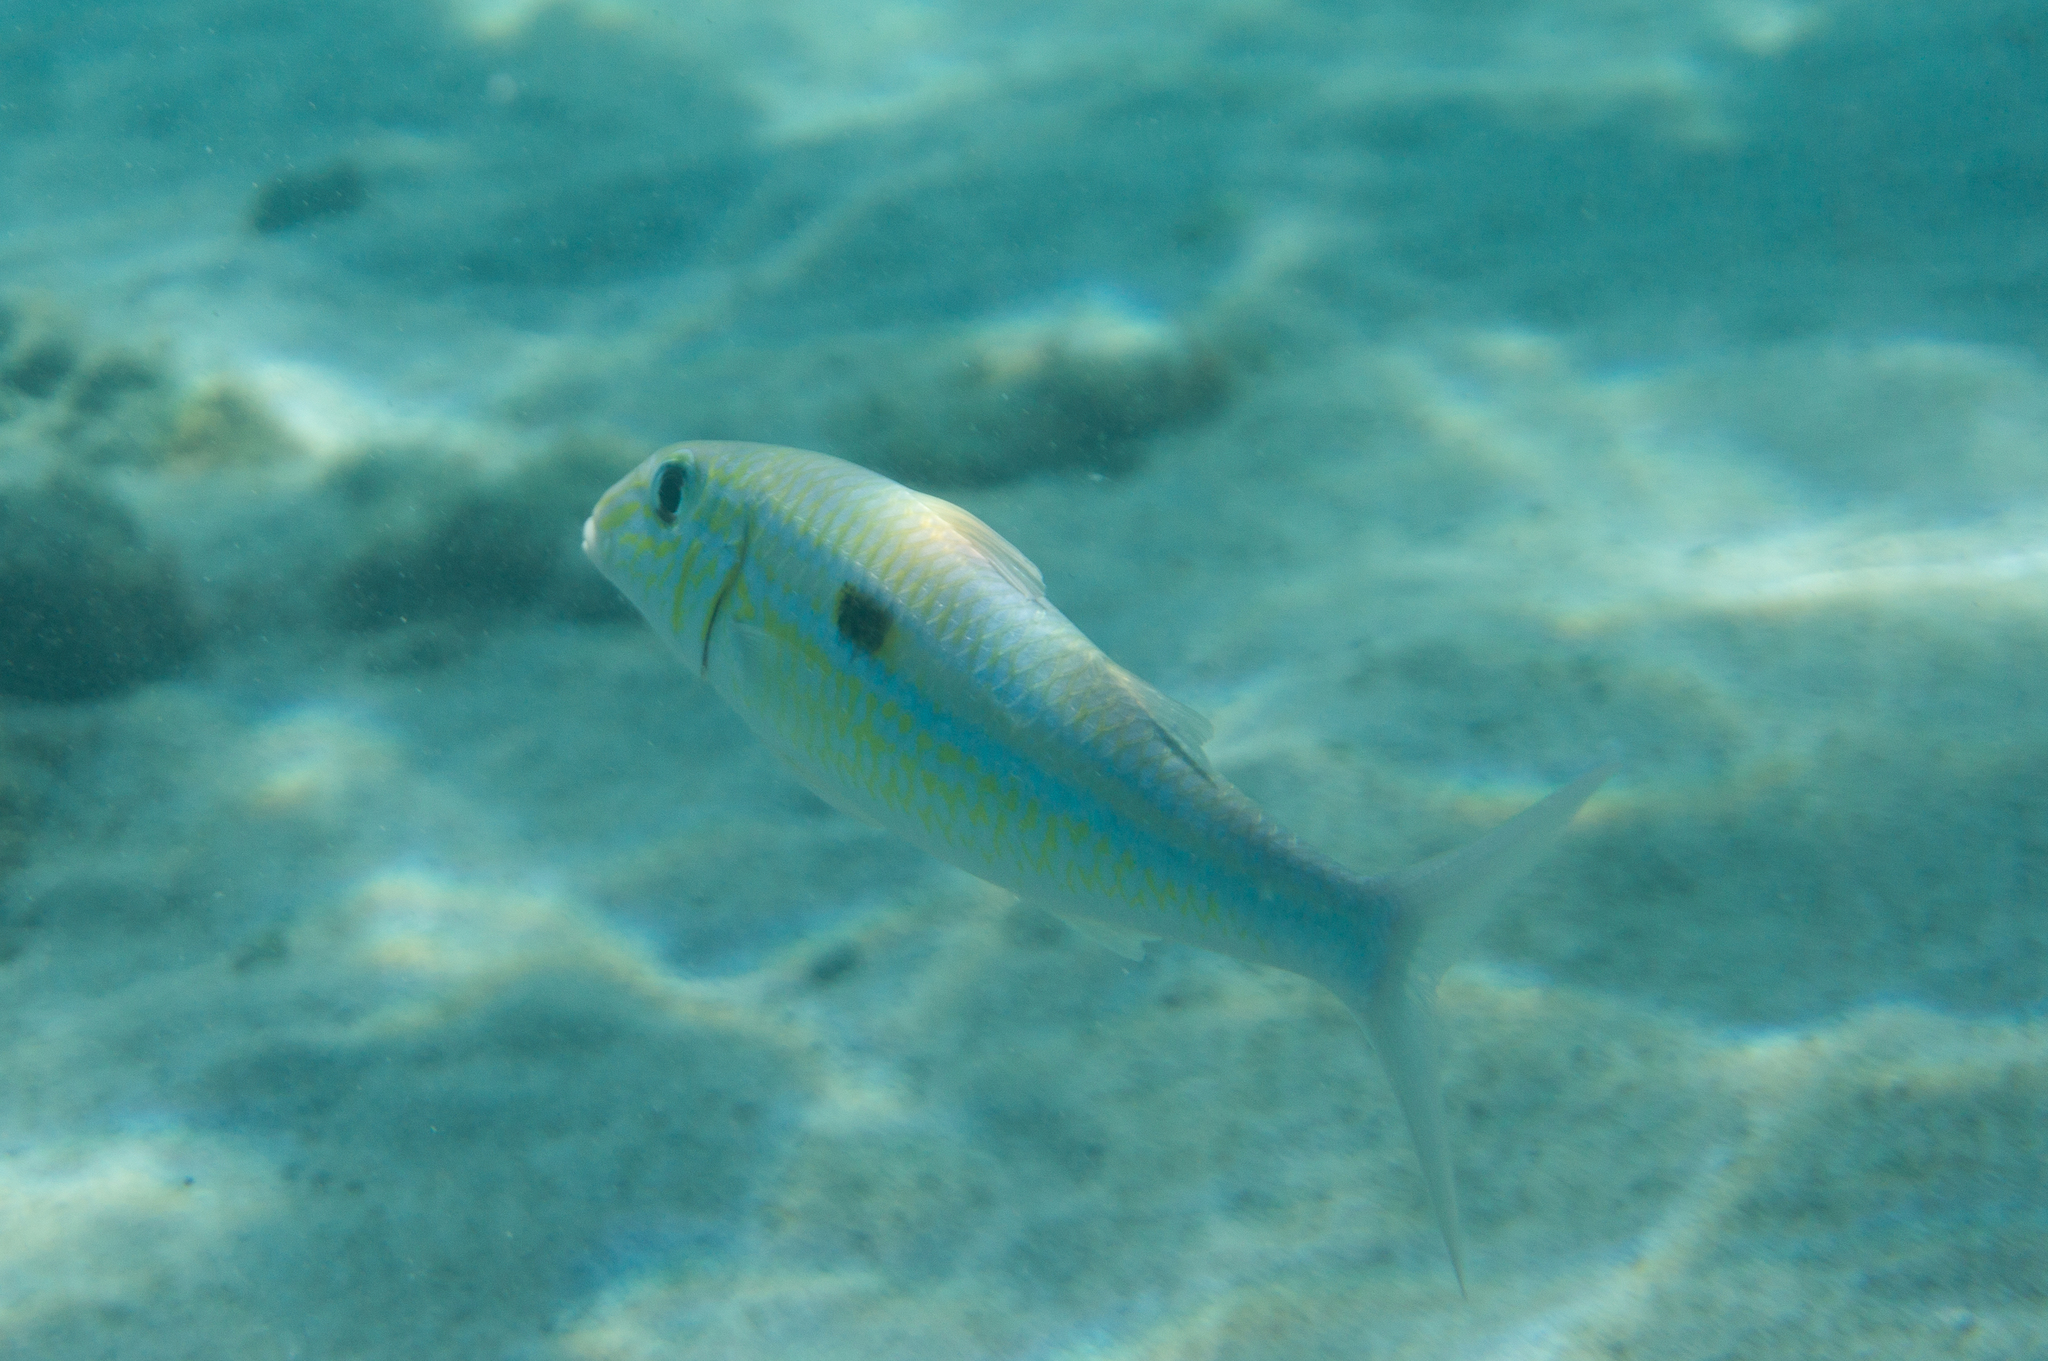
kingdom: Animalia
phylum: Chordata
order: Perciformes
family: Mullidae
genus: Mulloidichthys
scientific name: Mulloidichthys flavolineatus
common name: Yellowstripe goatfish
